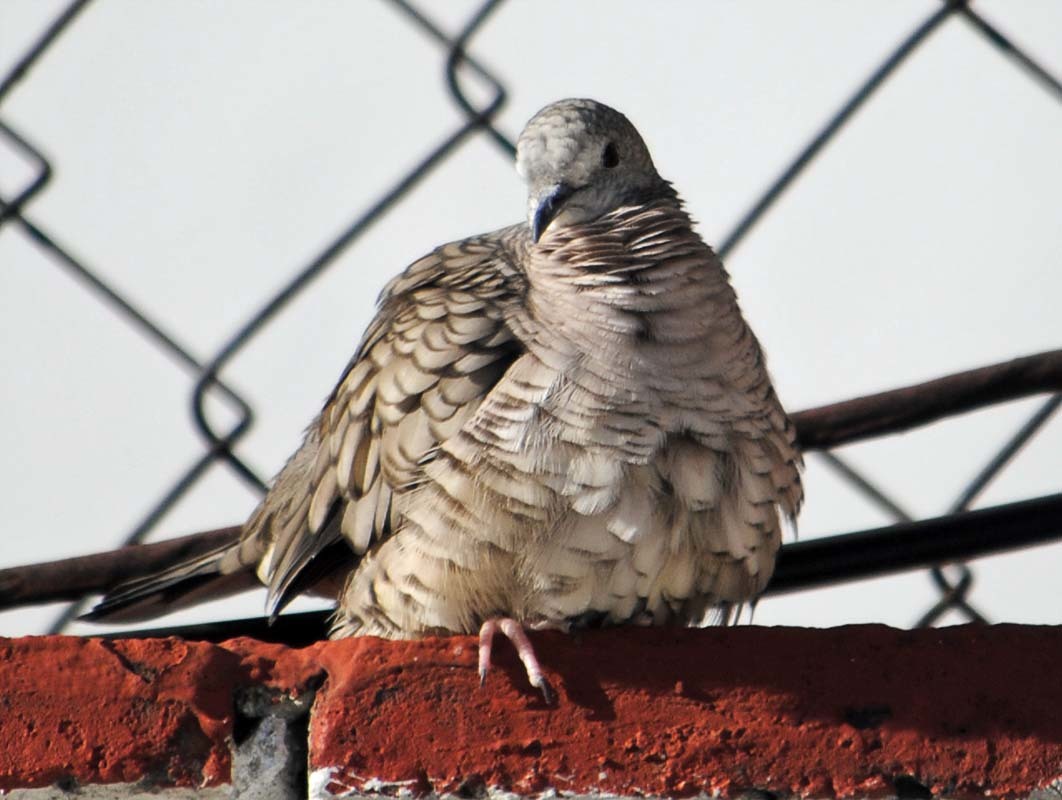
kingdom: Animalia
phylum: Chordata
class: Aves
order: Columbiformes
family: Columbidae
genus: Columbina
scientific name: Columbina inca
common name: Inca dove
